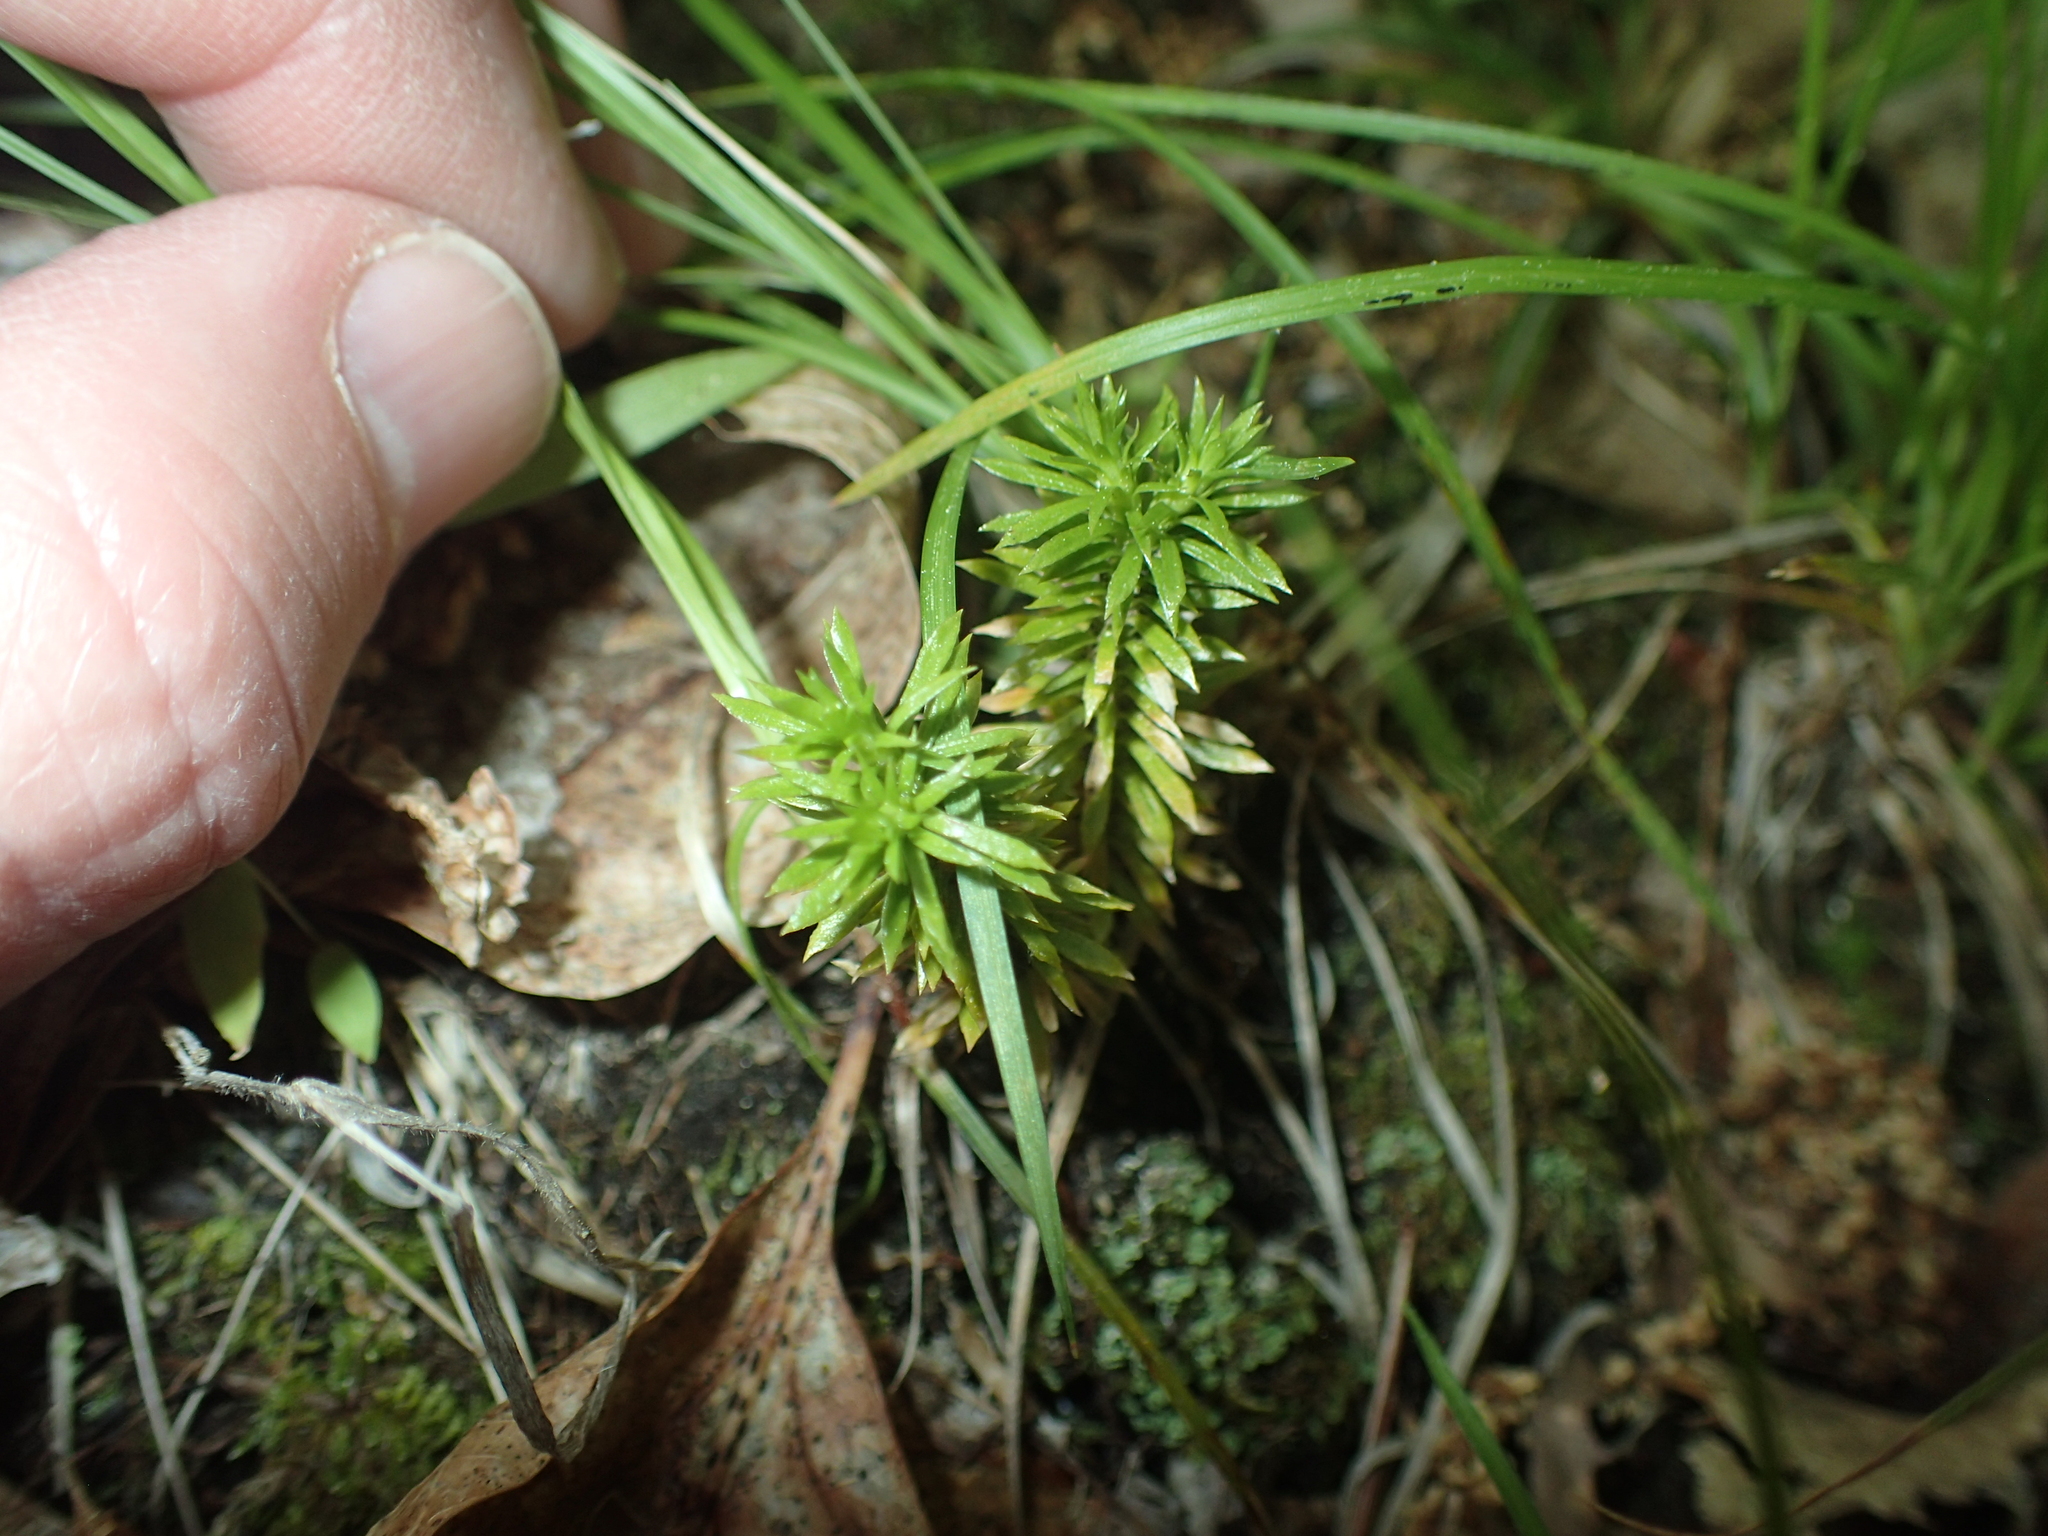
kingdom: Plantae
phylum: Tracheophyta
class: Lycopodiopsida
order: Lycopodiales
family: Lycopodiaceae
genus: Huperzia
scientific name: Huperzia lucidula
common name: Shining clubmoss
